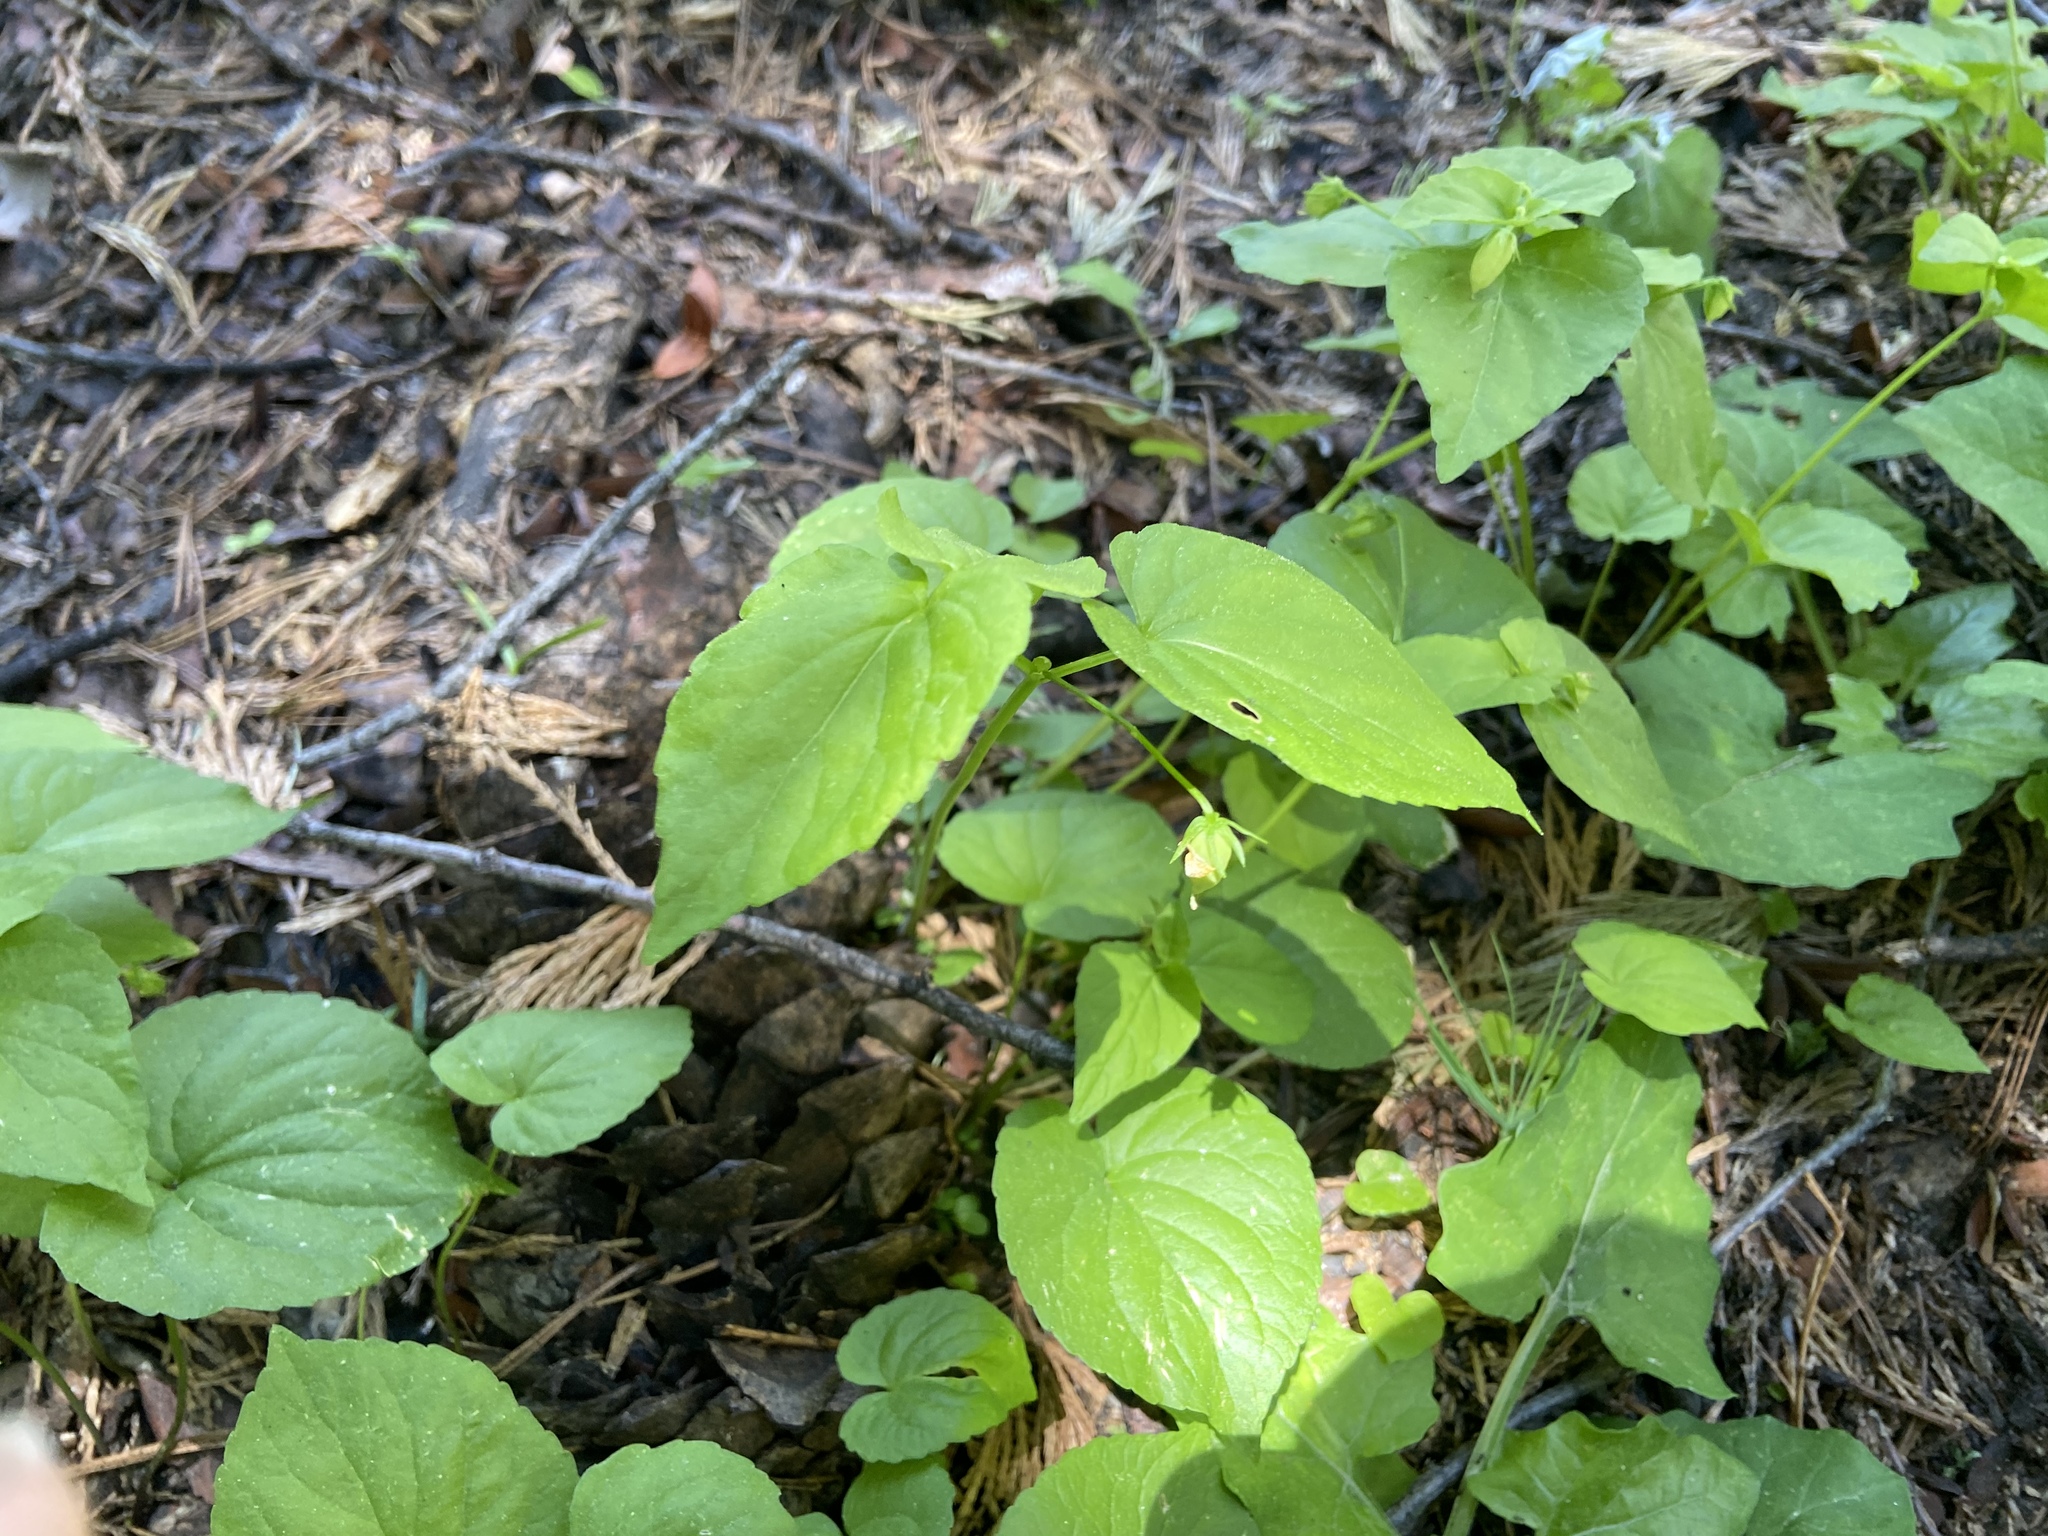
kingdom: Plantae
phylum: Tracheophyta
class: Magnoliopsida
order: Malpighiales
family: Violaceae
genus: Viola
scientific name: Viola glabella
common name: Stream violet
